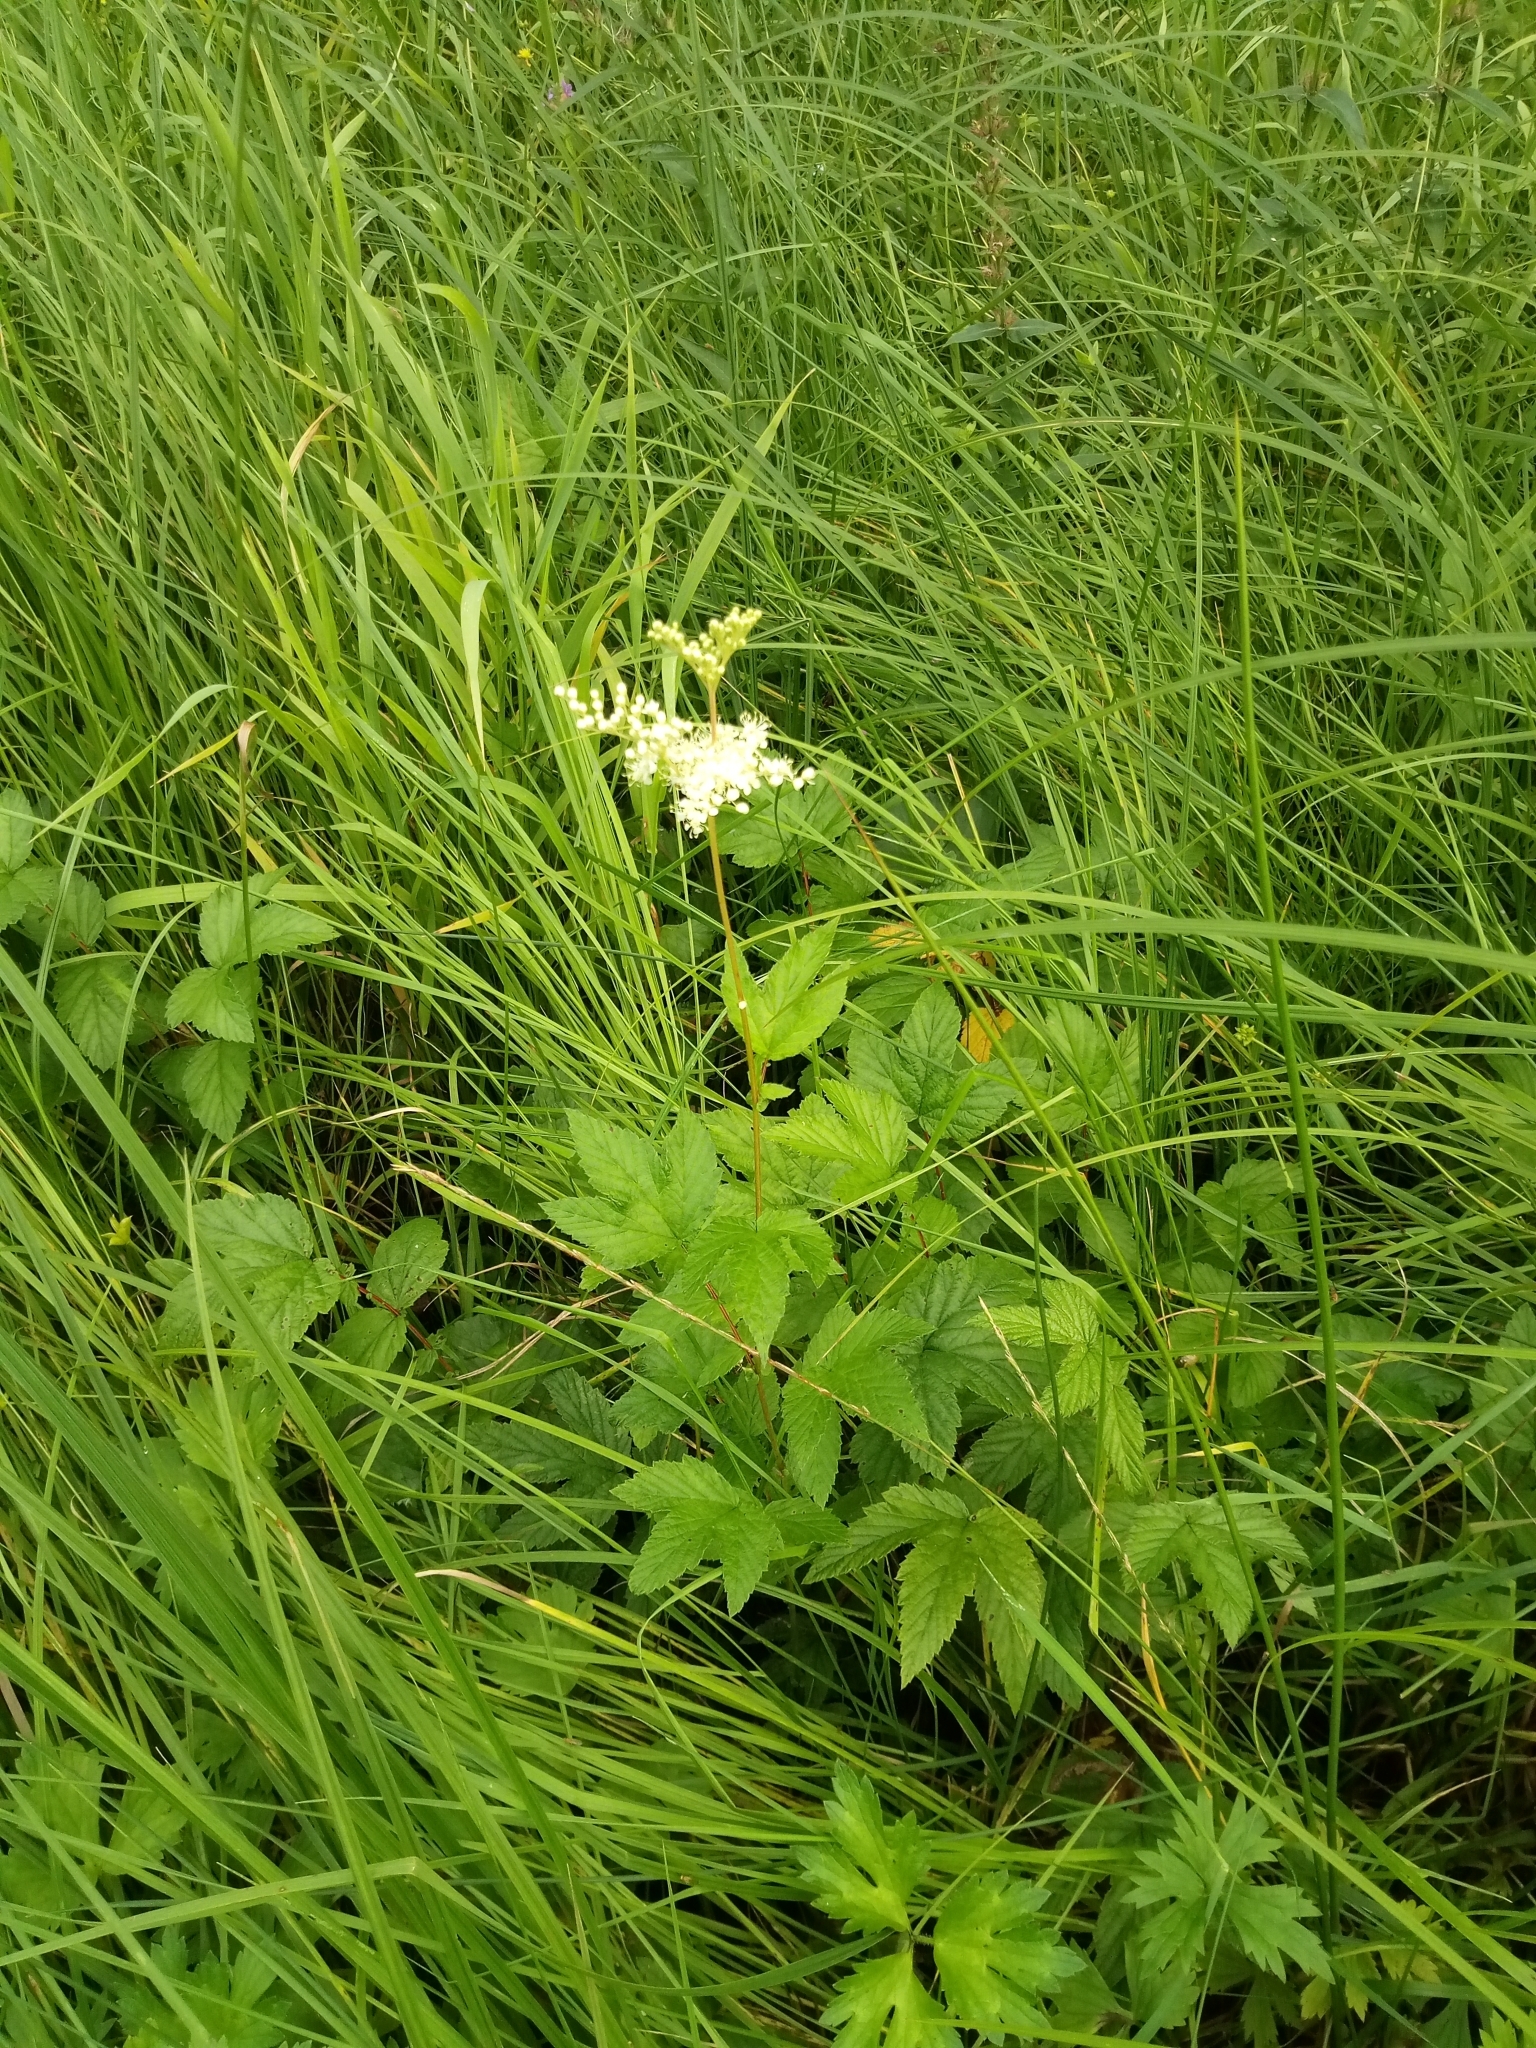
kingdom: Plantae
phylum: Tracheophyta
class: Magnoliopsida
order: Rosales
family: Rosaceae
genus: Filipendula
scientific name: Filipendula ulmaria
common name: Meadowsweet
